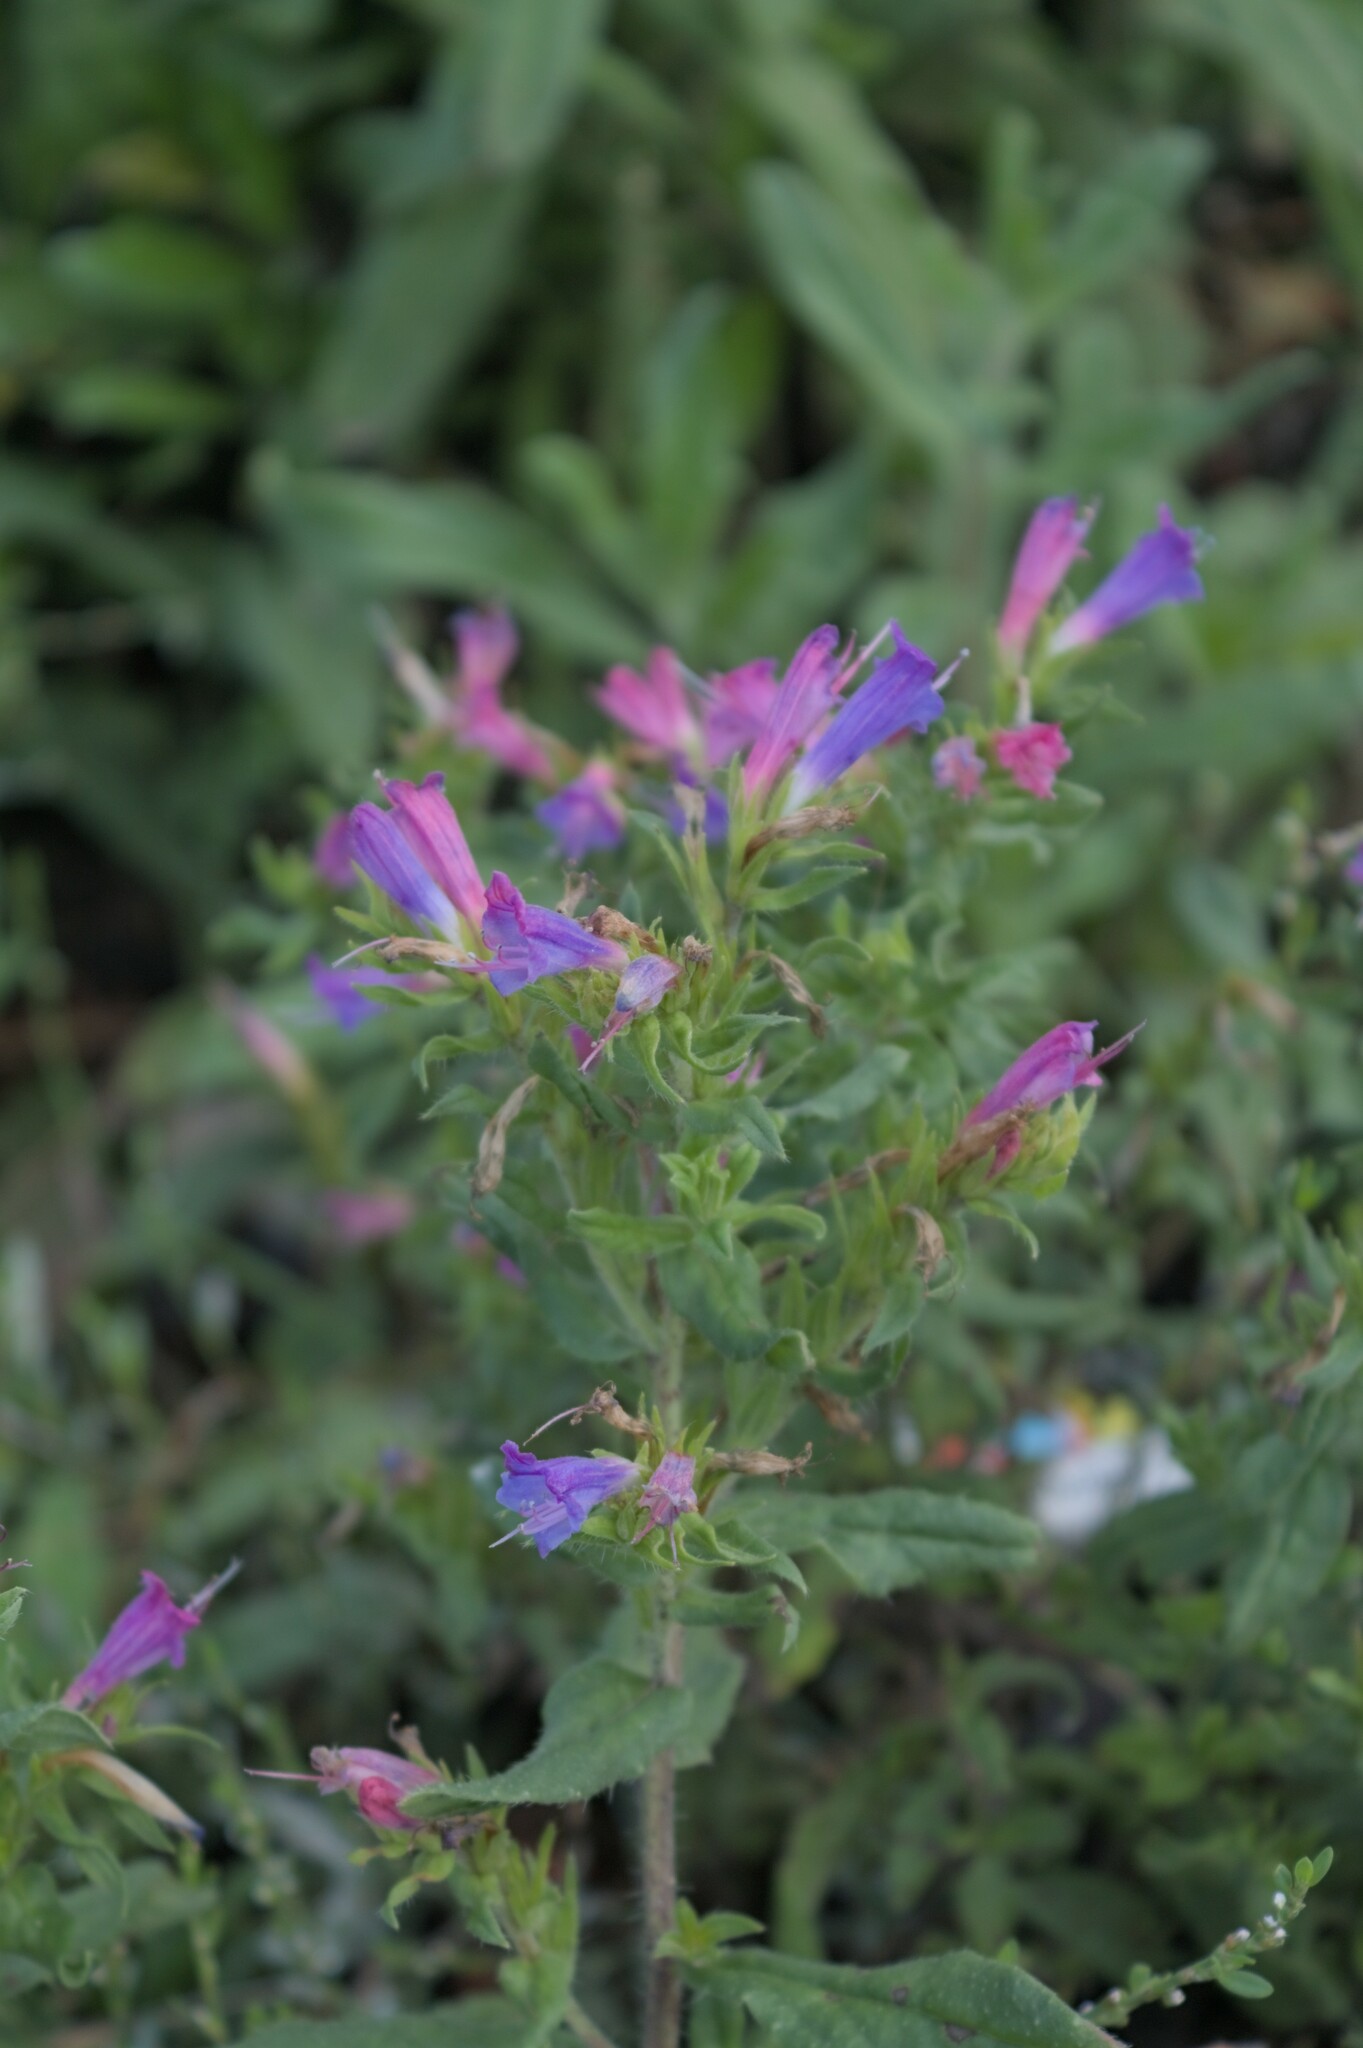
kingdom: Plantae
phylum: Tracheophyta
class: Magnoliopsida
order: Boraginales
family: Boraginaceae
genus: Echium
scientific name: Echium rosulatum
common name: Lax viper's-bugloss
